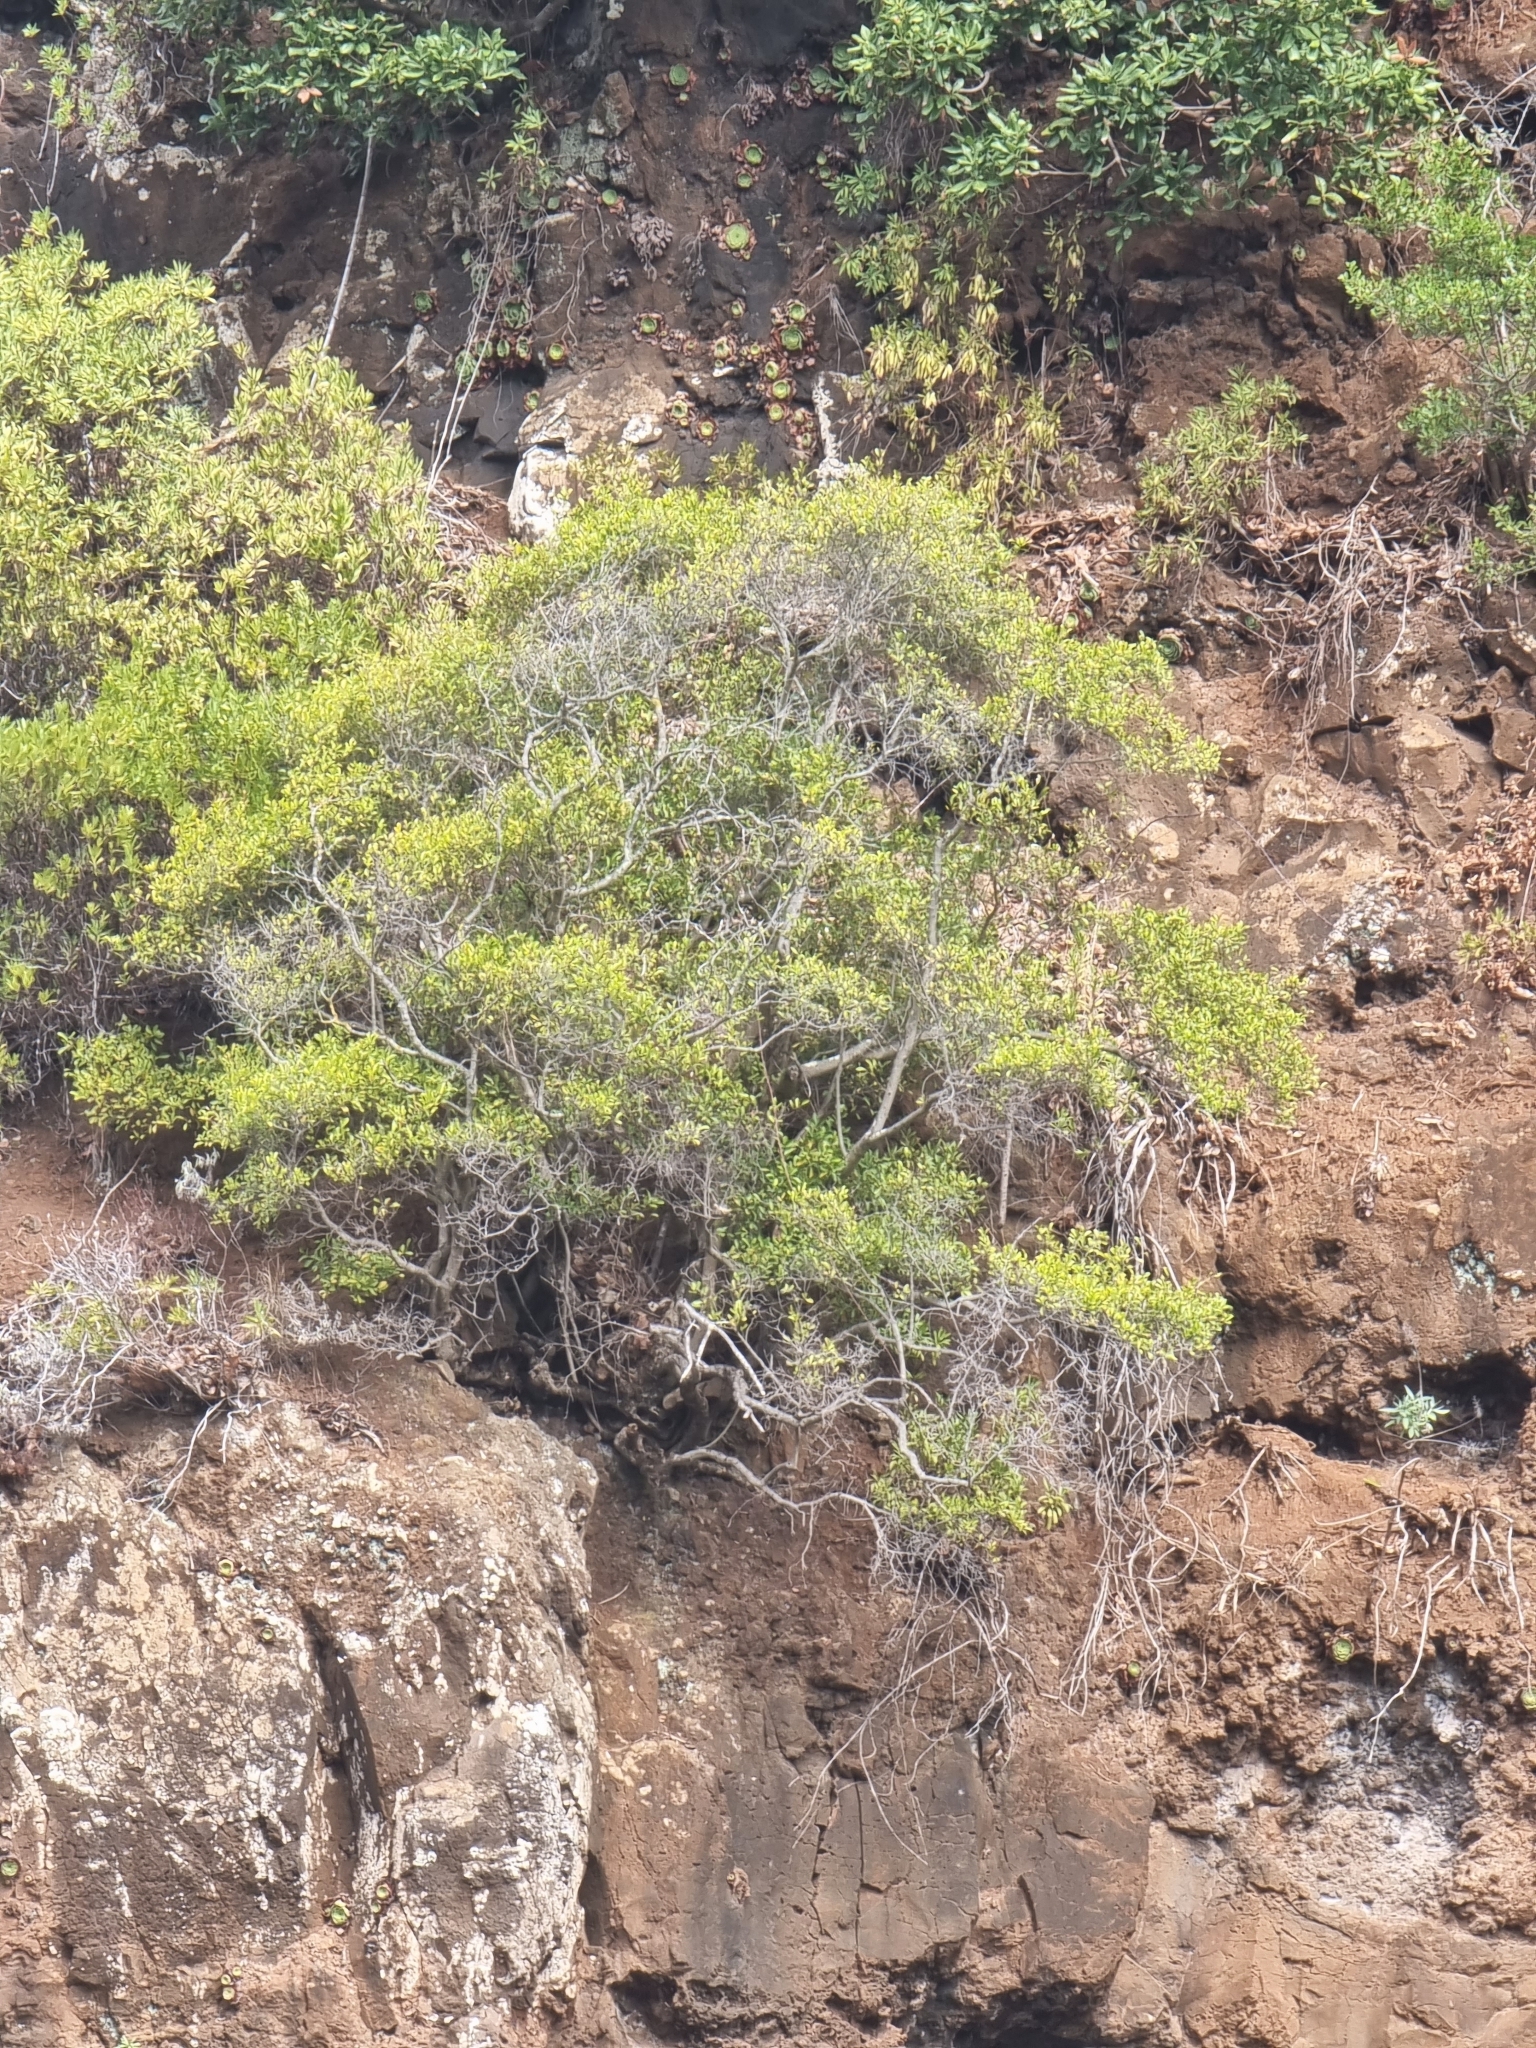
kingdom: Plantae
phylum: Tracheophyta
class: Magnoliopsida
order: Celastrales
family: Celastraceae
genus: Gymnosporia
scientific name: Gymnosporia dryandri
